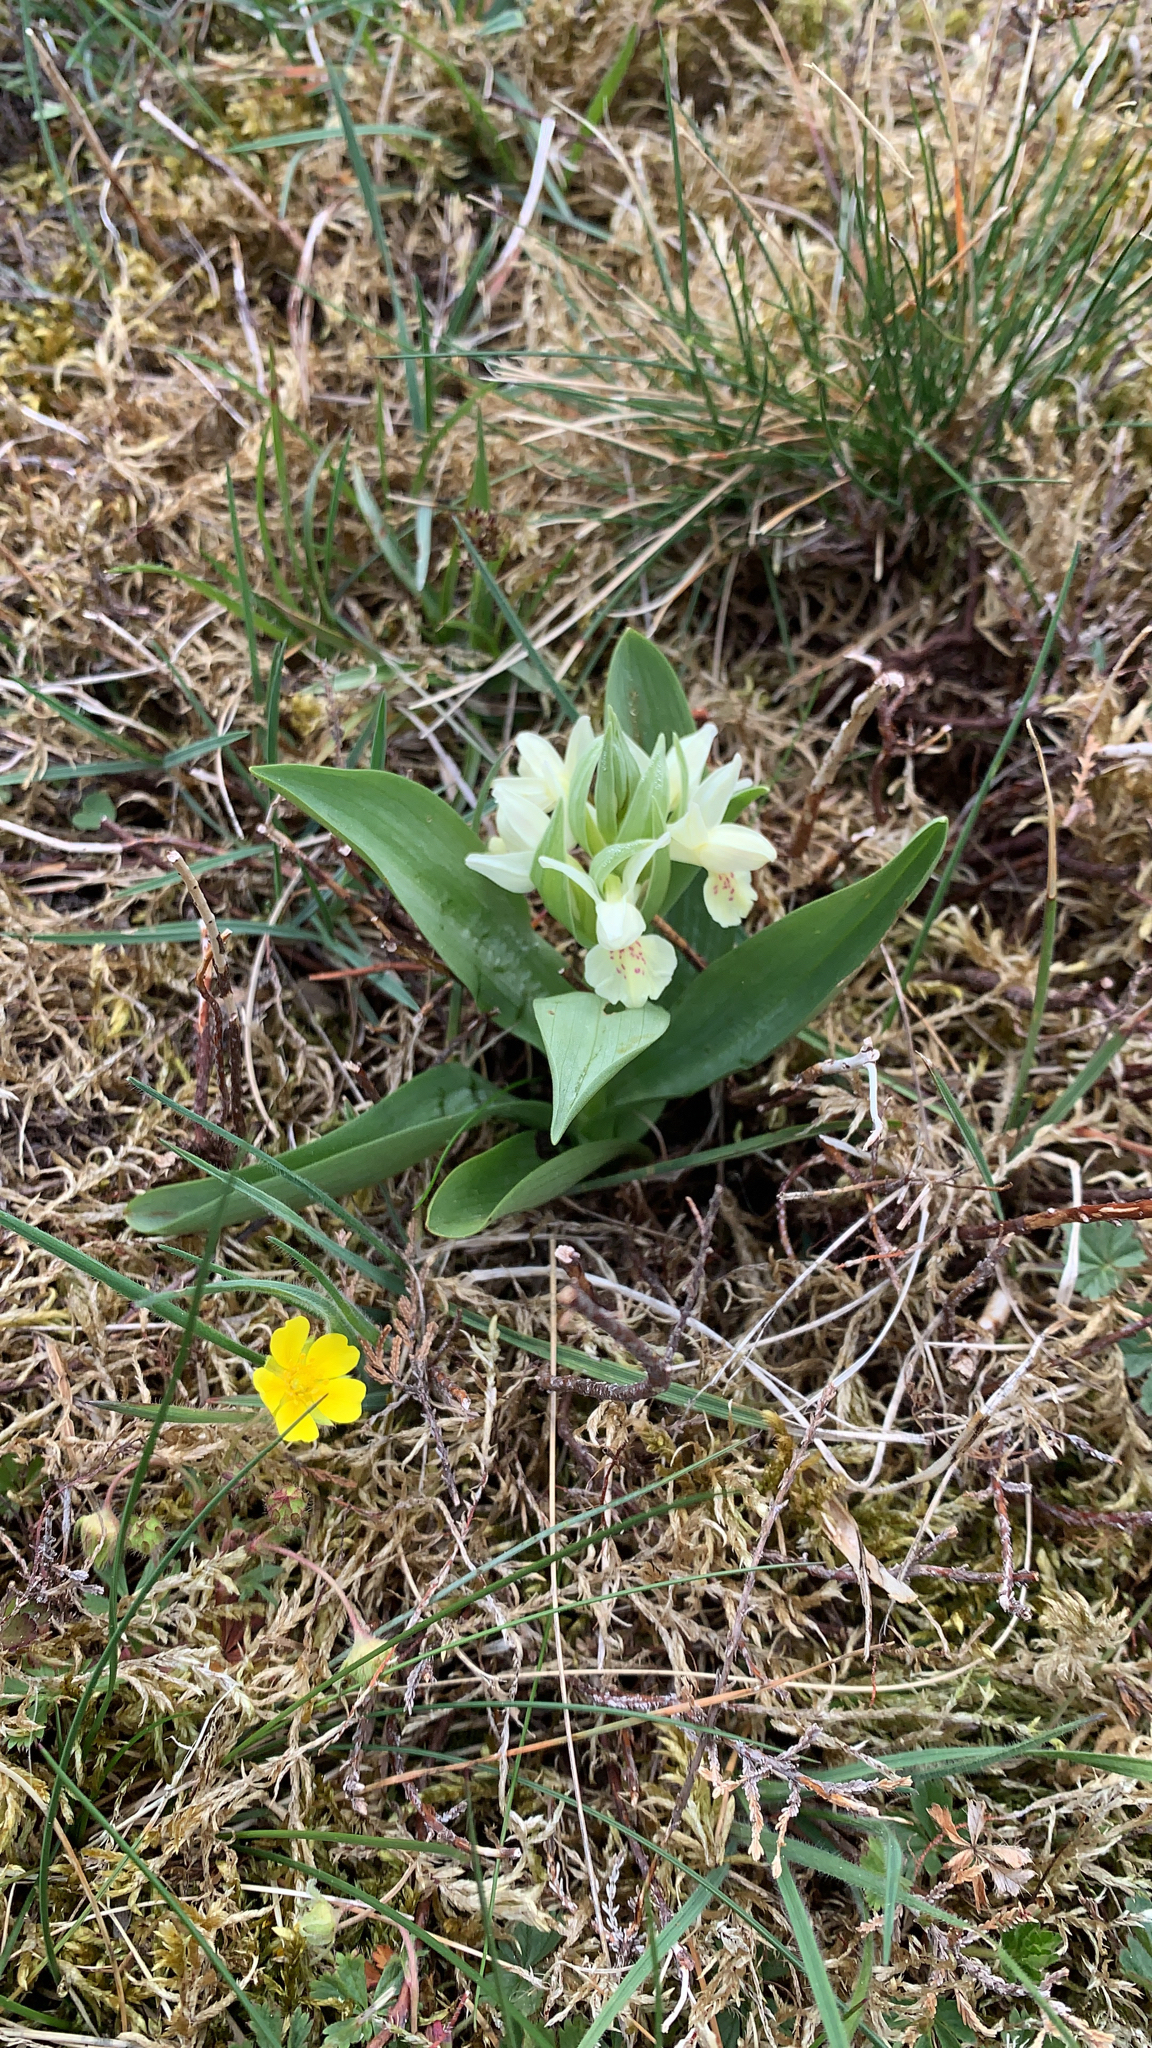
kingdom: Plantae
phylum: Tracheophyta
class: Liliopsida
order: Asparagales
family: Orchidaceae
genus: Dactylorhiza
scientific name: Dactylorhiza sambucina
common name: Elder-flowered orchid
